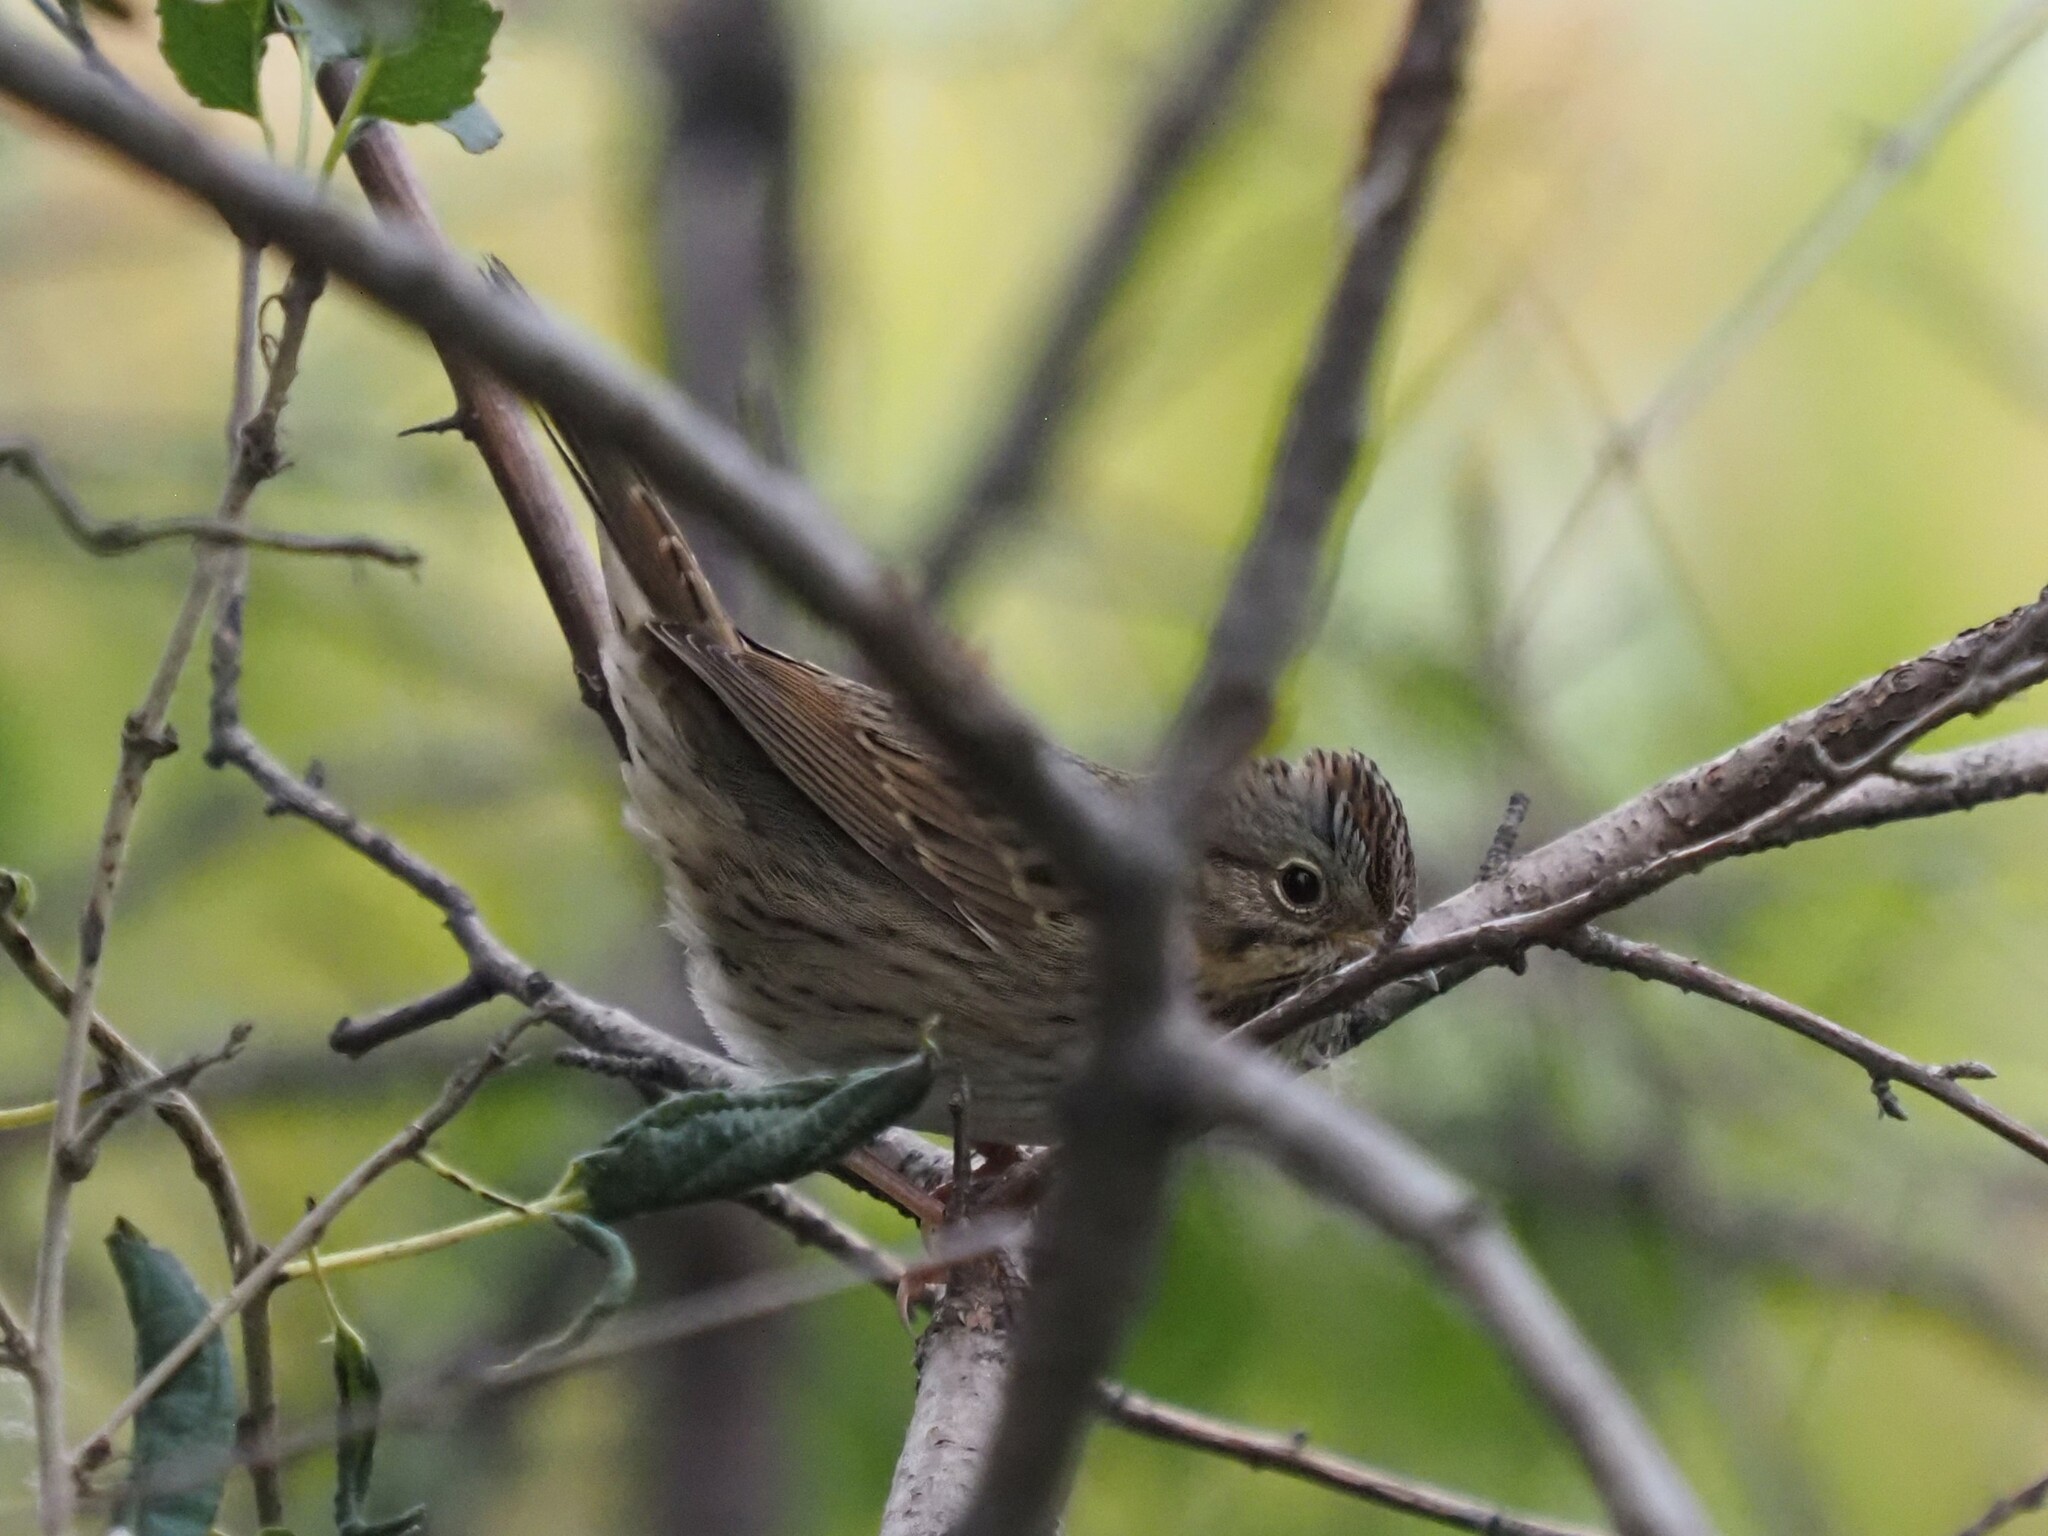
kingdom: Animalia
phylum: Chordata
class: Aves
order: Passeriformes
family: Passerellidae
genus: Melospiza
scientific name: Melospiza lincolnii
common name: Lincoln's sparrow
